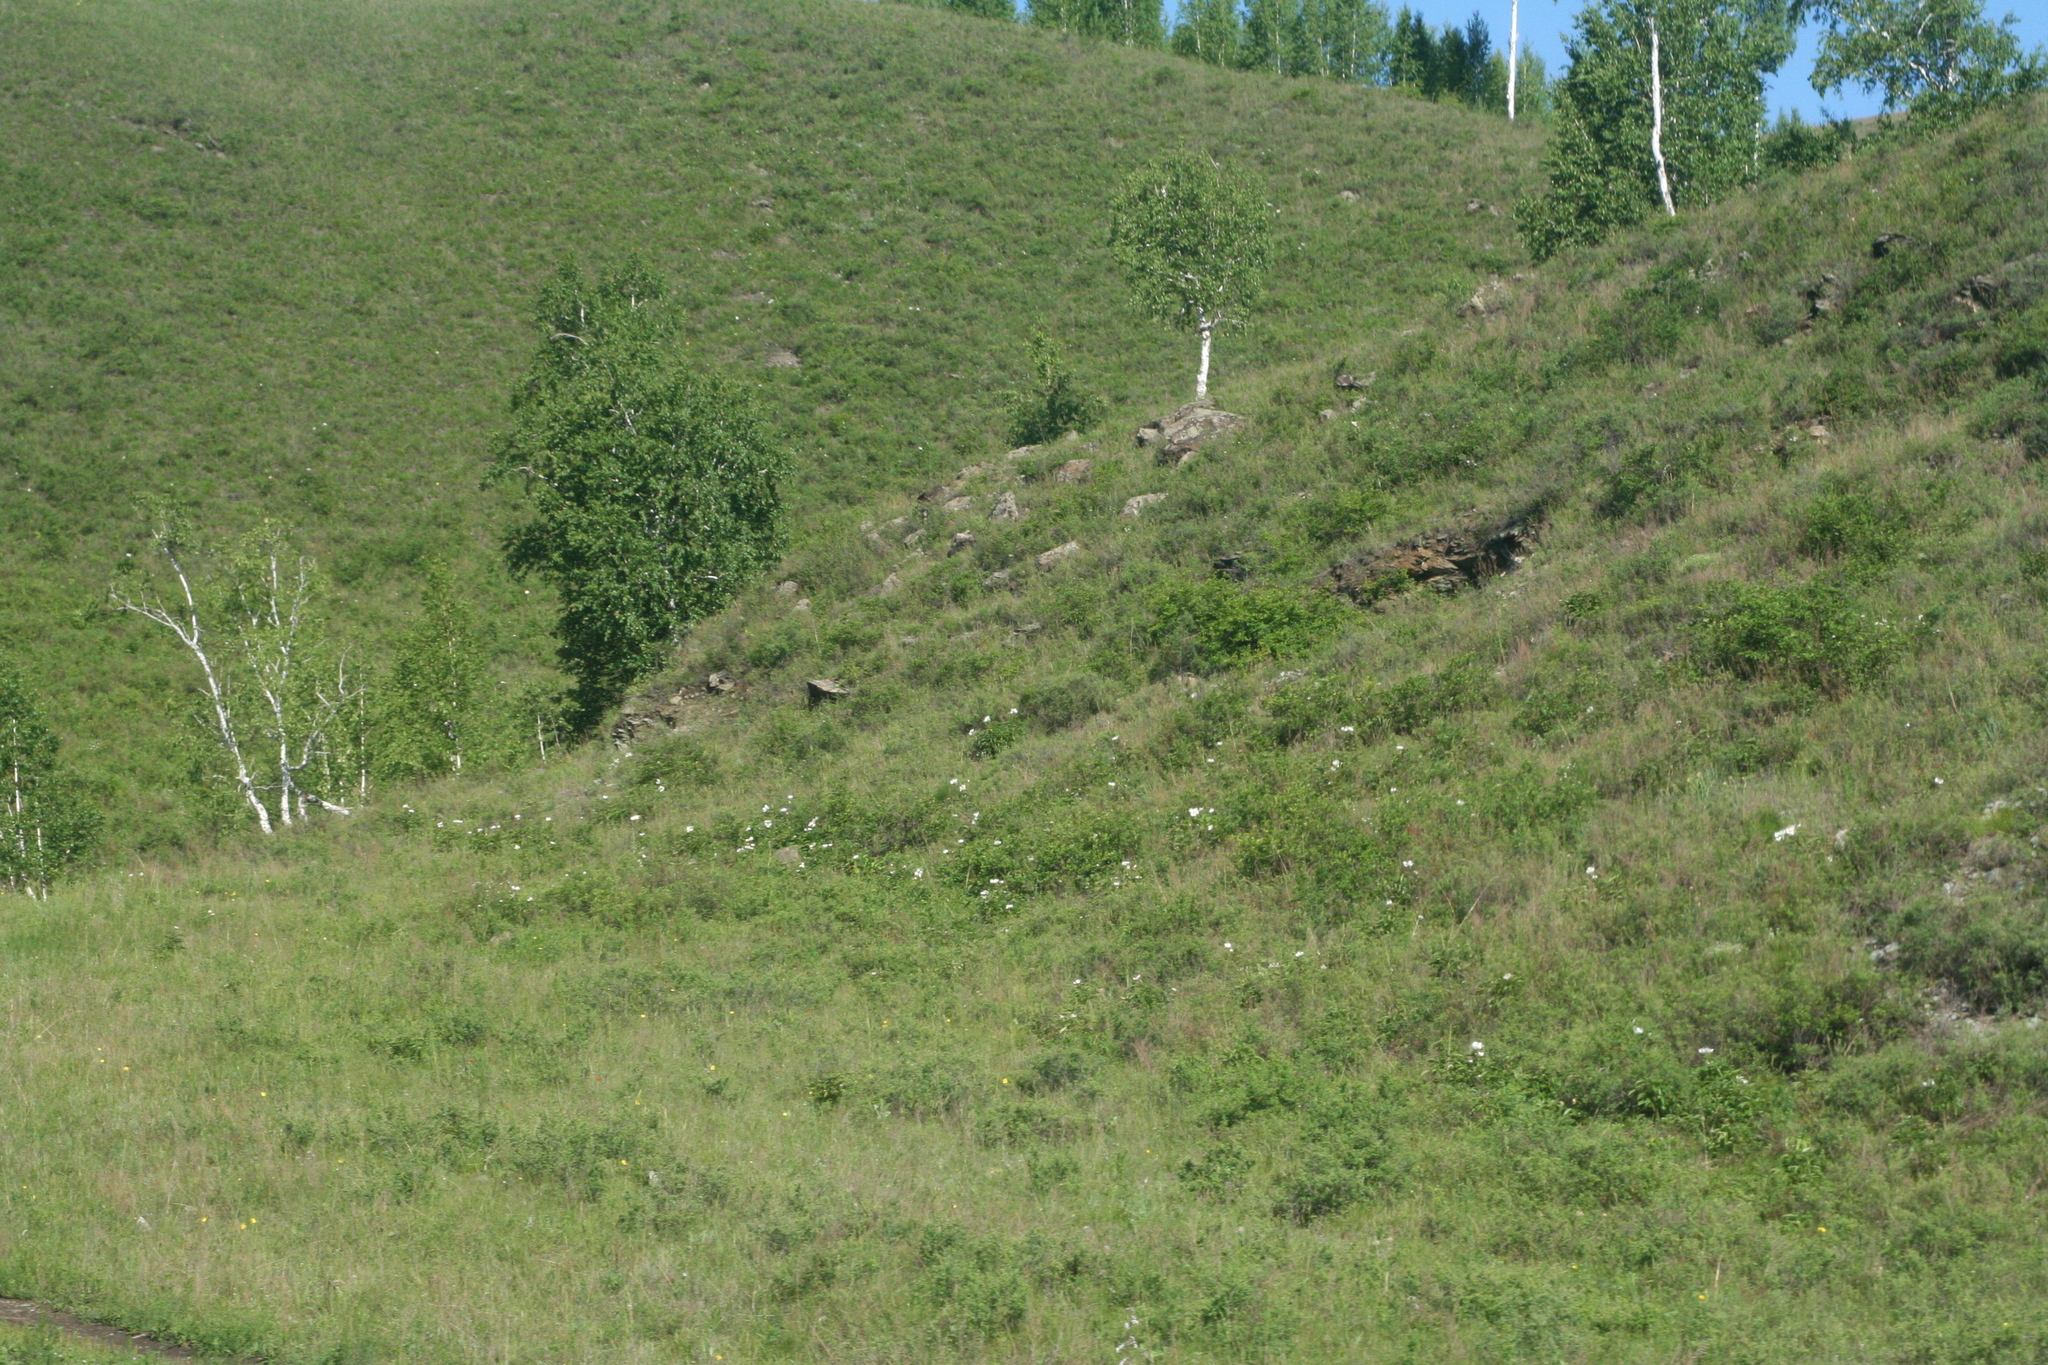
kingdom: Plantae
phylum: Tracheophyta
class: Magnoliopsida
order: Fagales
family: Betulaceae
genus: Betula
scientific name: Betula pendula
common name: Silver birch
